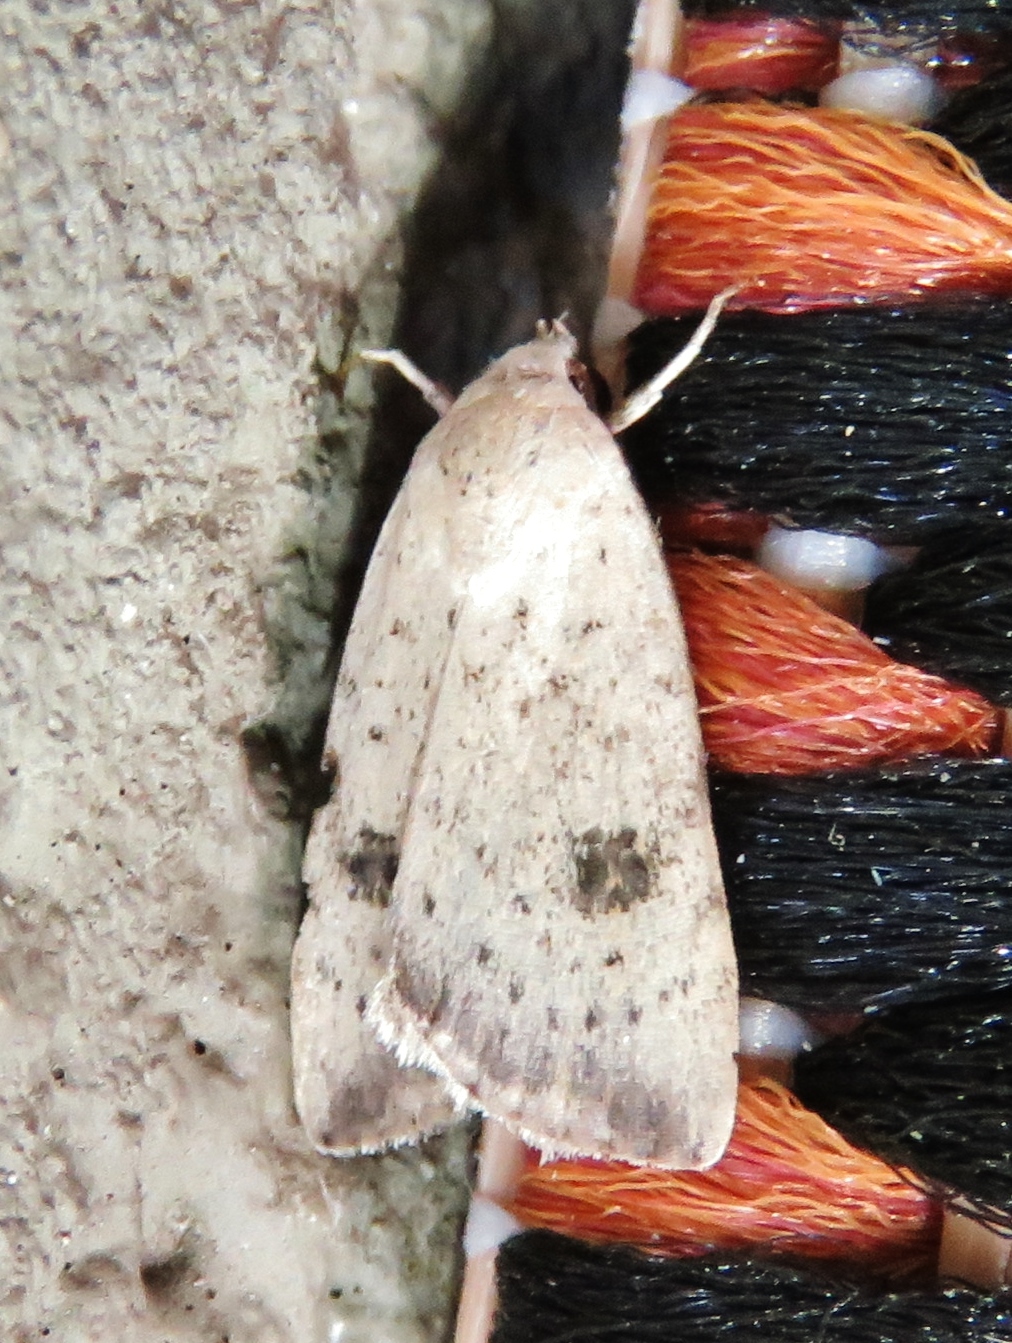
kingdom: Animalia
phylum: Arthropoda
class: Insecta
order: Lepidoptera
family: Noctuidae
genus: Micrathetis
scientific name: Micrathetis triplex
